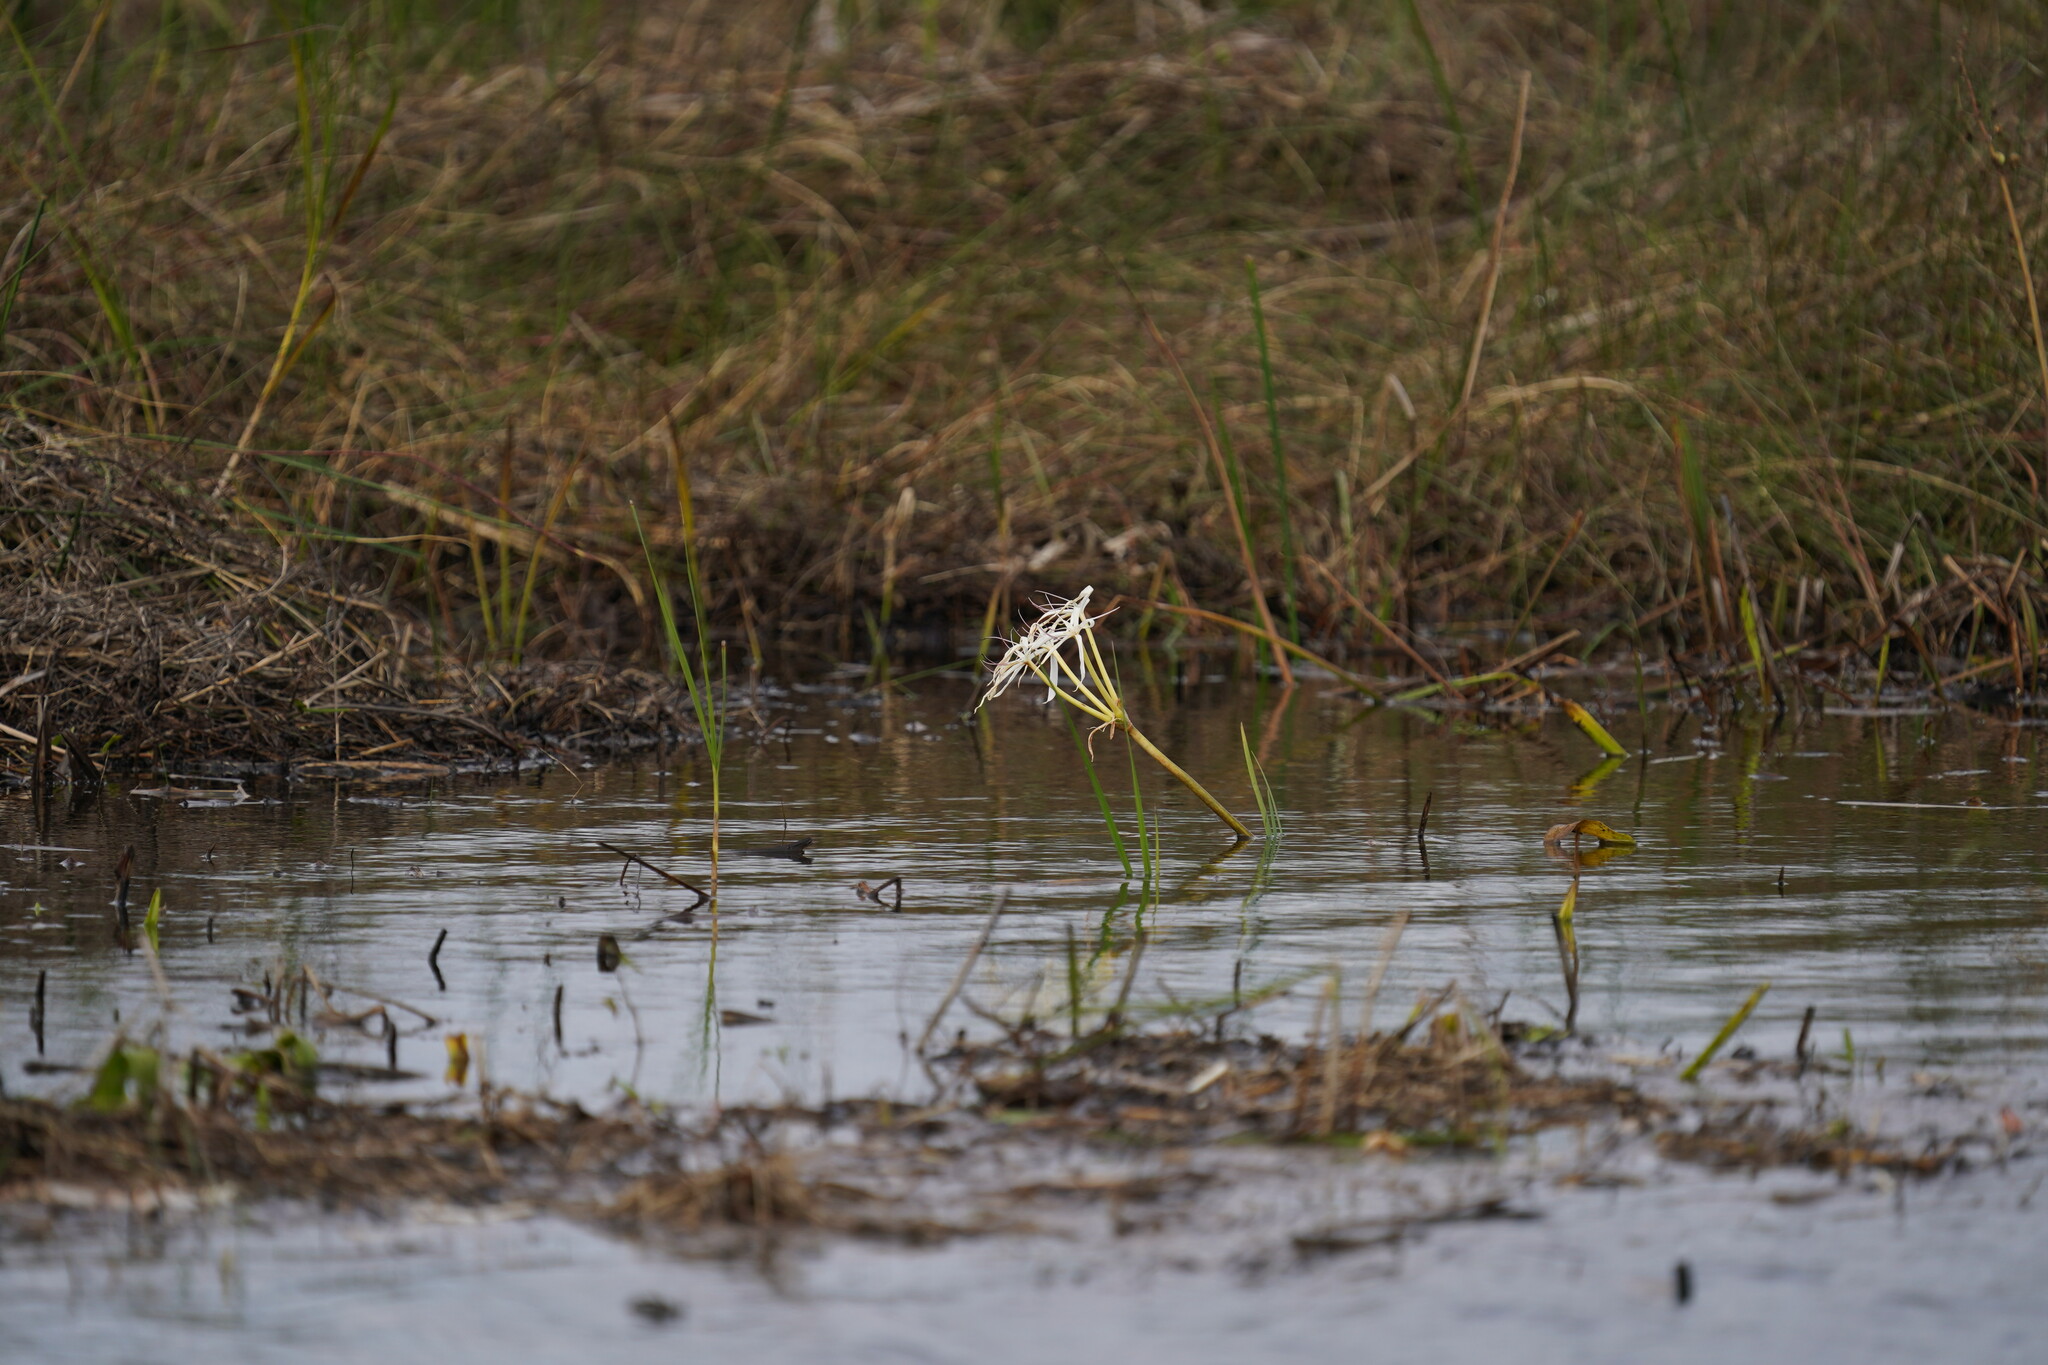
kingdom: Plantae
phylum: Tracheophyta
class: Liliopsida
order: Asparagales
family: Amaryllidaceae
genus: Crinum
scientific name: Crinum americanum
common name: Florida swamp-lily
